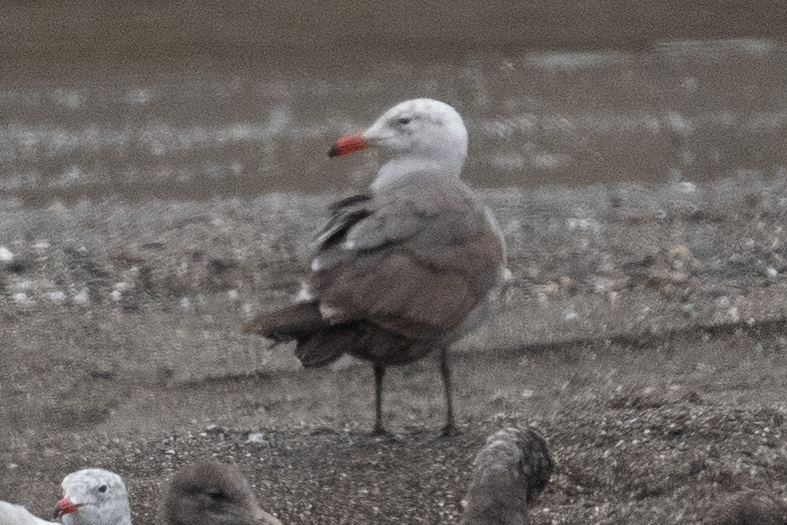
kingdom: Animalia
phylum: Chordata
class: Aves
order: Charadriiformes
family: Laridae
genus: Larus
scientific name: Larus heermanni
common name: Heermann's gull
